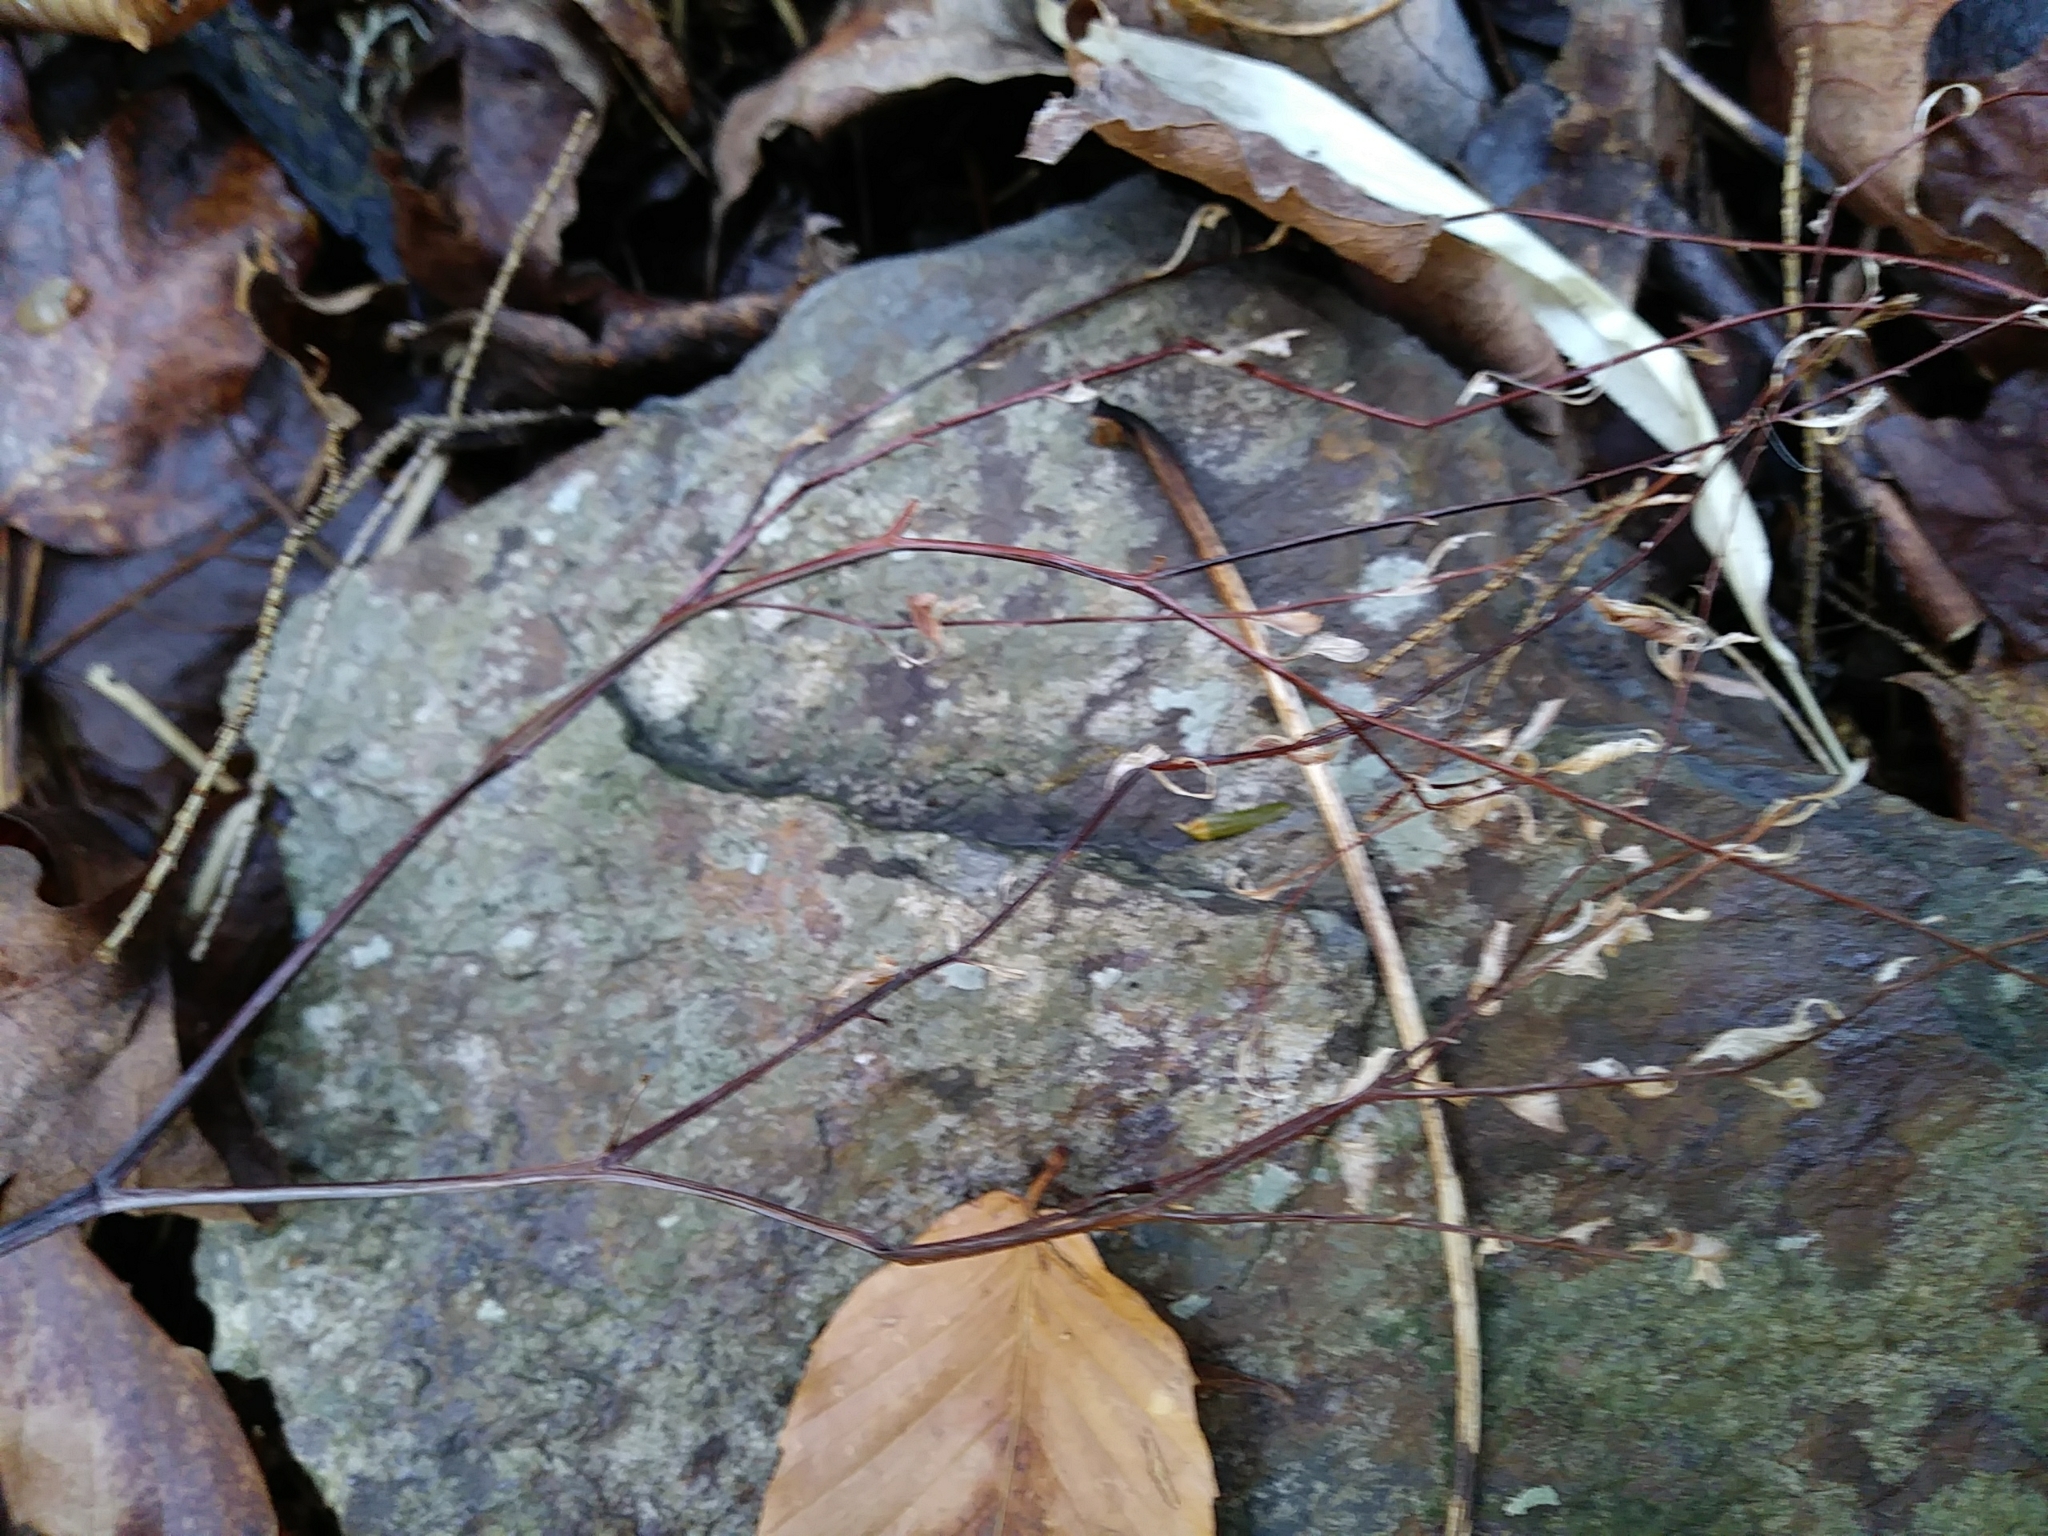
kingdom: Plantae
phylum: Tracheophyta
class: Polypodiopsida
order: Polypodiales
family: Pteridaceae
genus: Adiantum
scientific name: Adiantum pedatum
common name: Five-finger fern
